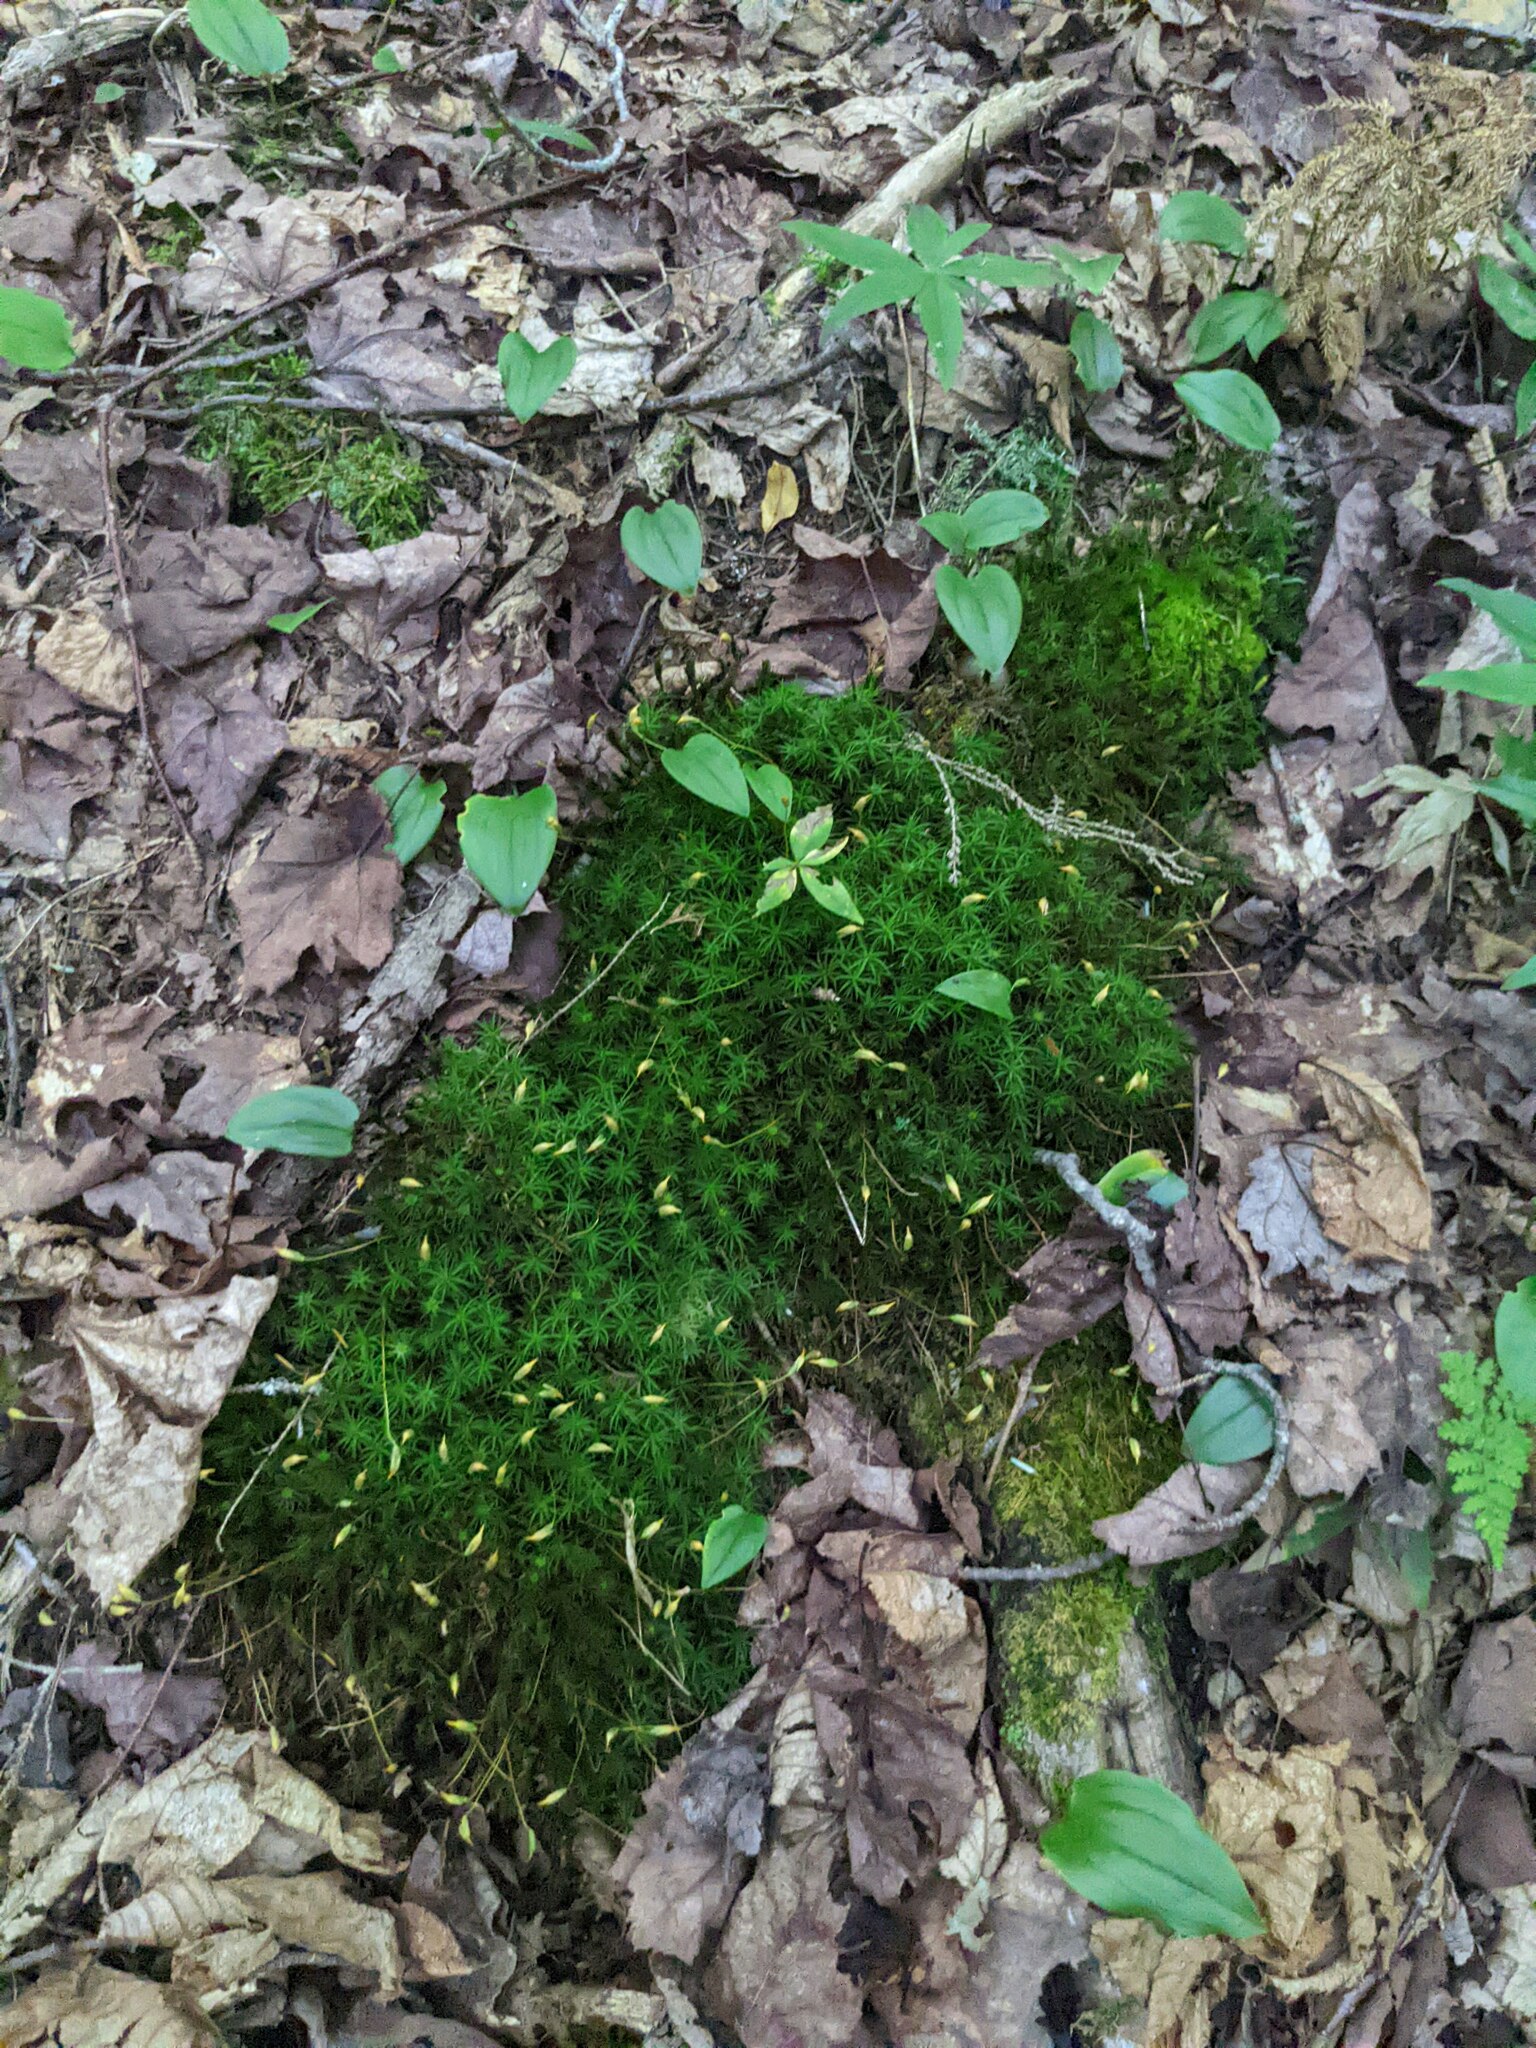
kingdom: Plantae
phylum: Tracheophyta
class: Liliopsida
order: Asparagales
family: Asparagaceae
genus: Maianthemum
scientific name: Maianthemum canadense
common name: False lily-of-the-valley
